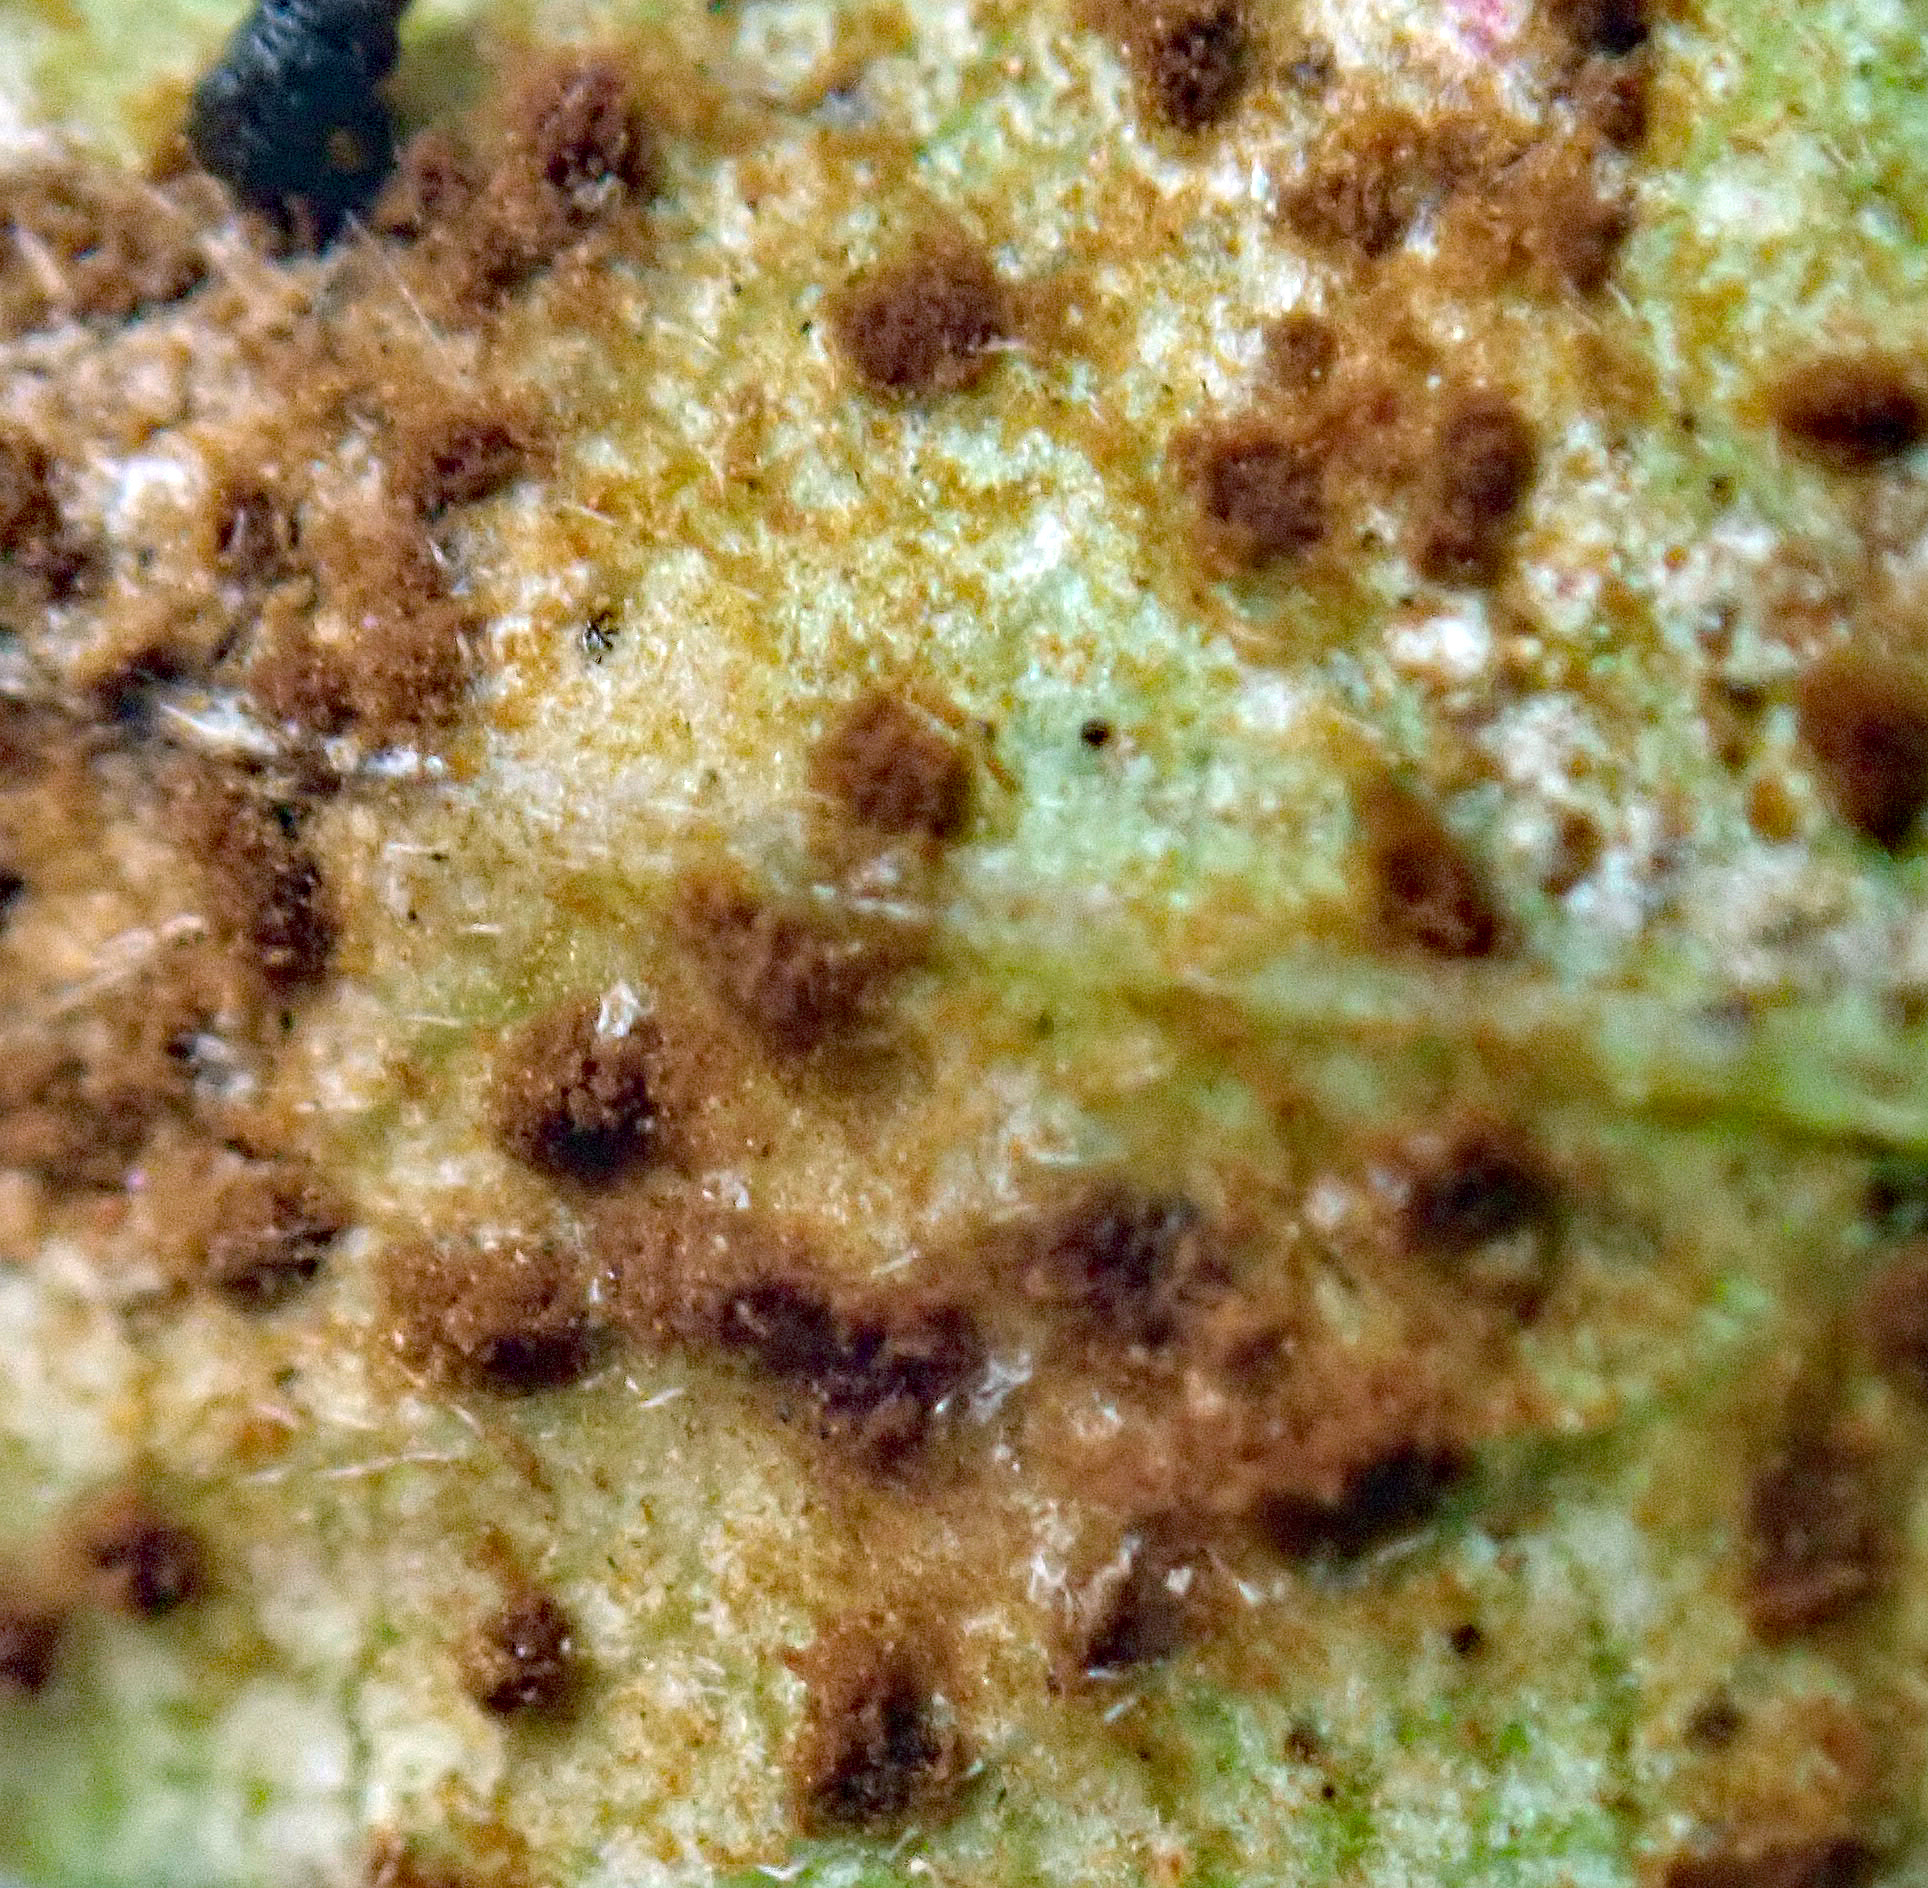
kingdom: Fungi
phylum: Basidiomycota
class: Pucciniomycetes
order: Pucciniales
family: Pucciniaceae
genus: Uromyces
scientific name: Uromyces bidenticola
